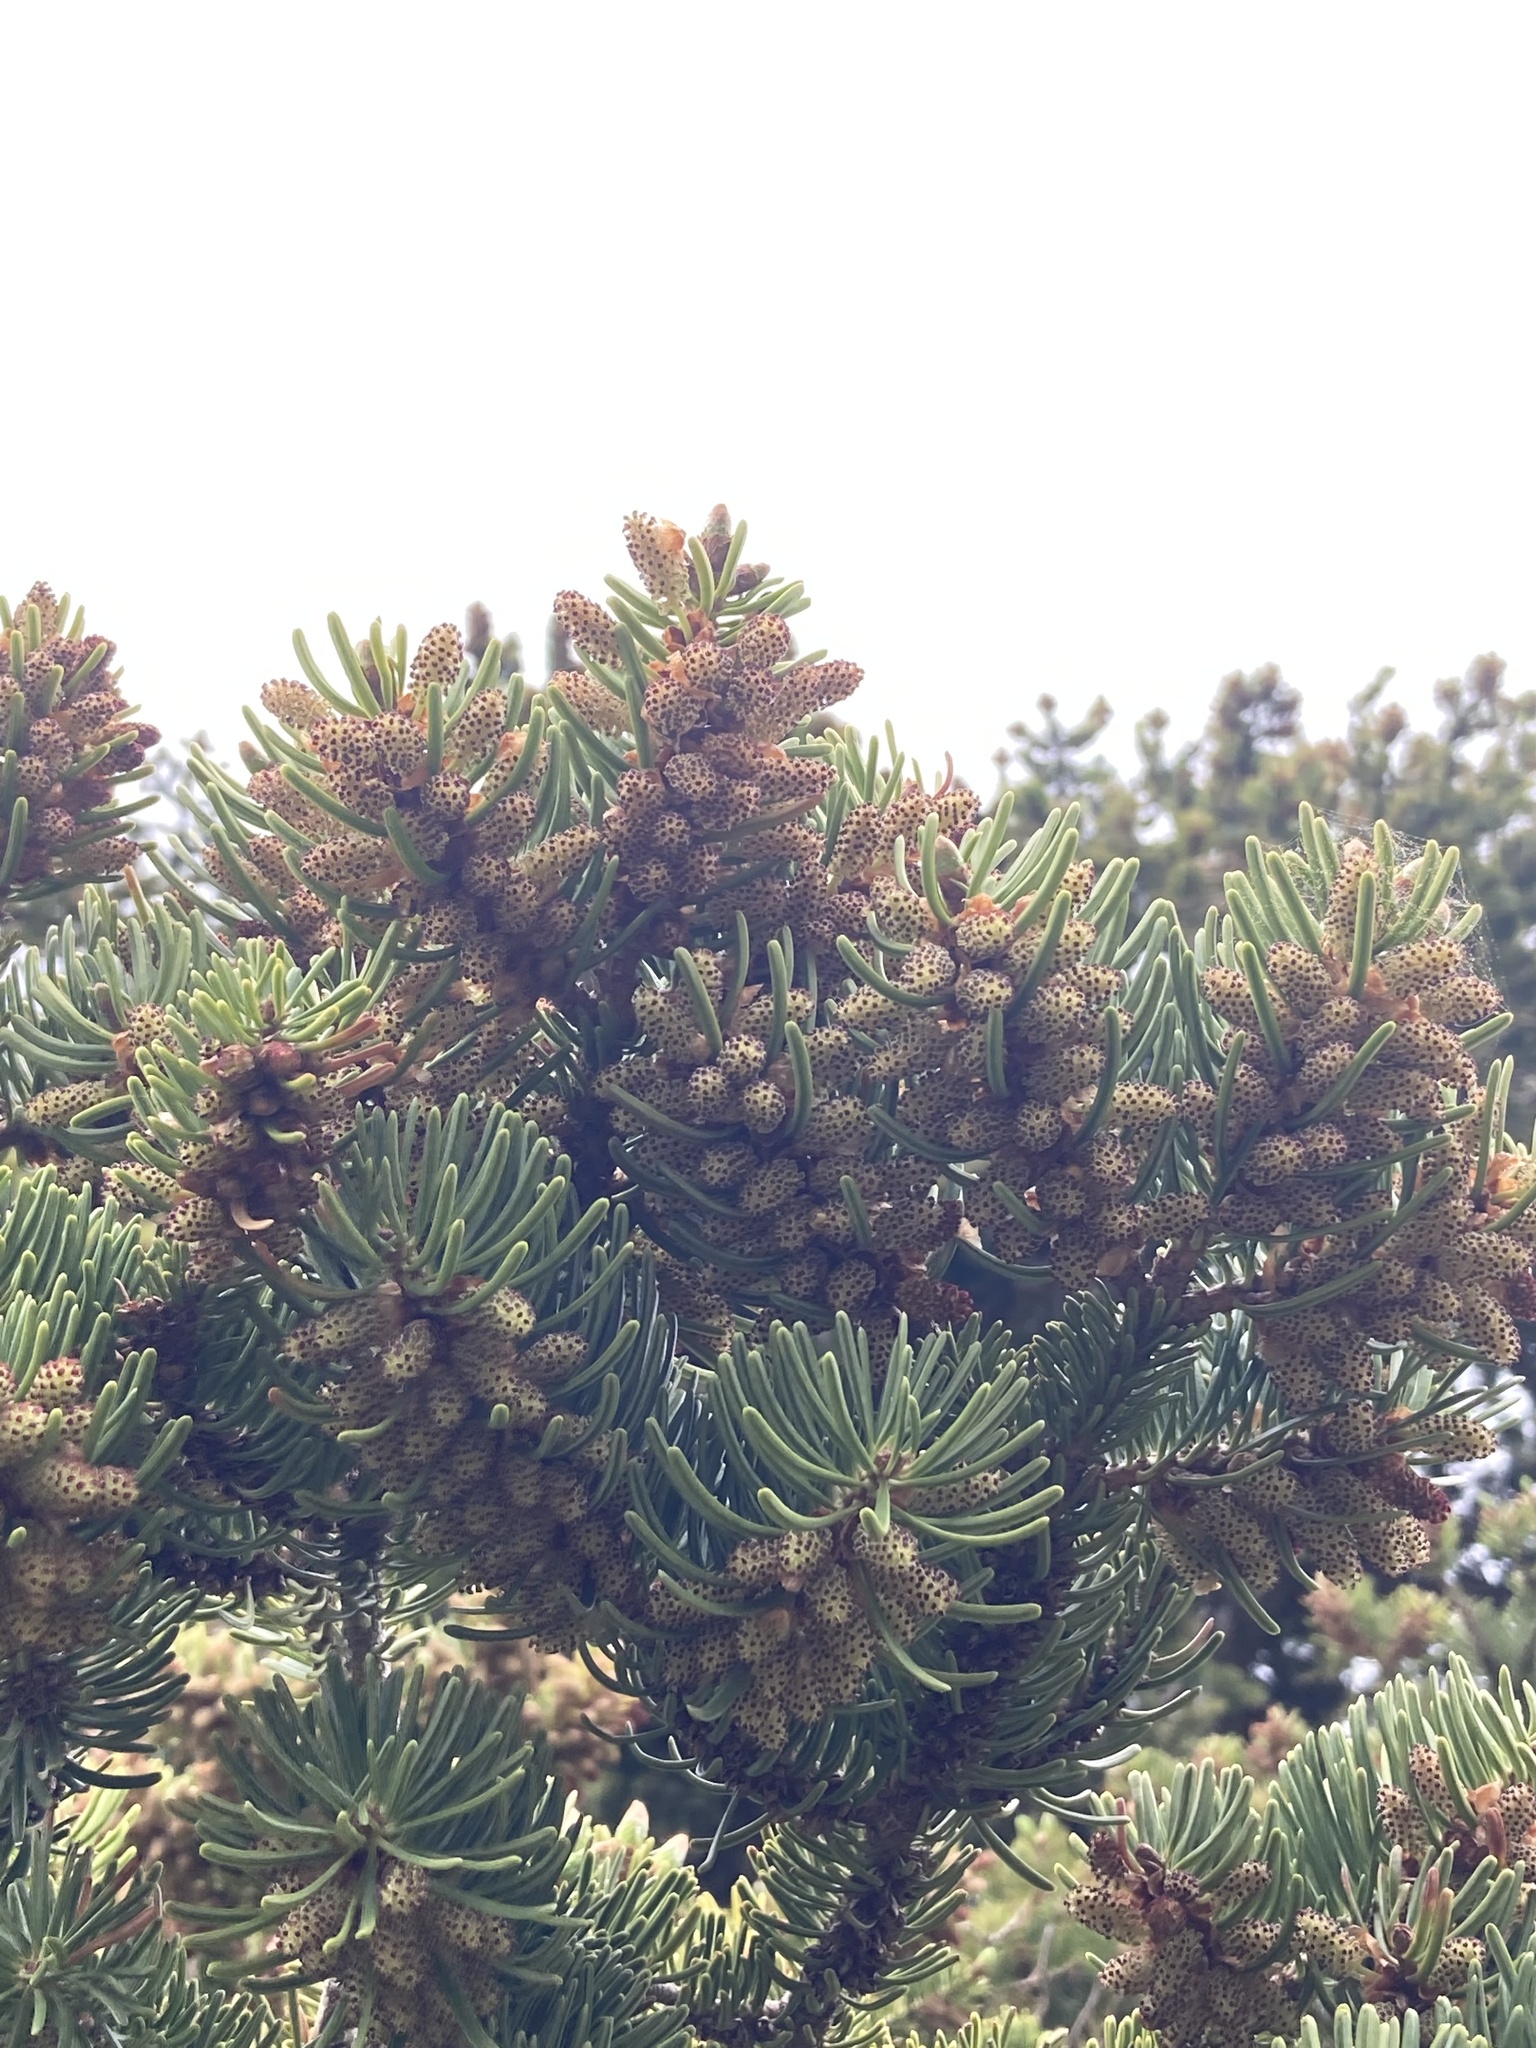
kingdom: Plantae
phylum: Tracheophyta
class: Pinopsida
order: Pinales
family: Pinaceae
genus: Abies
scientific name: Abies nordmanniana
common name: Caucasian fir
